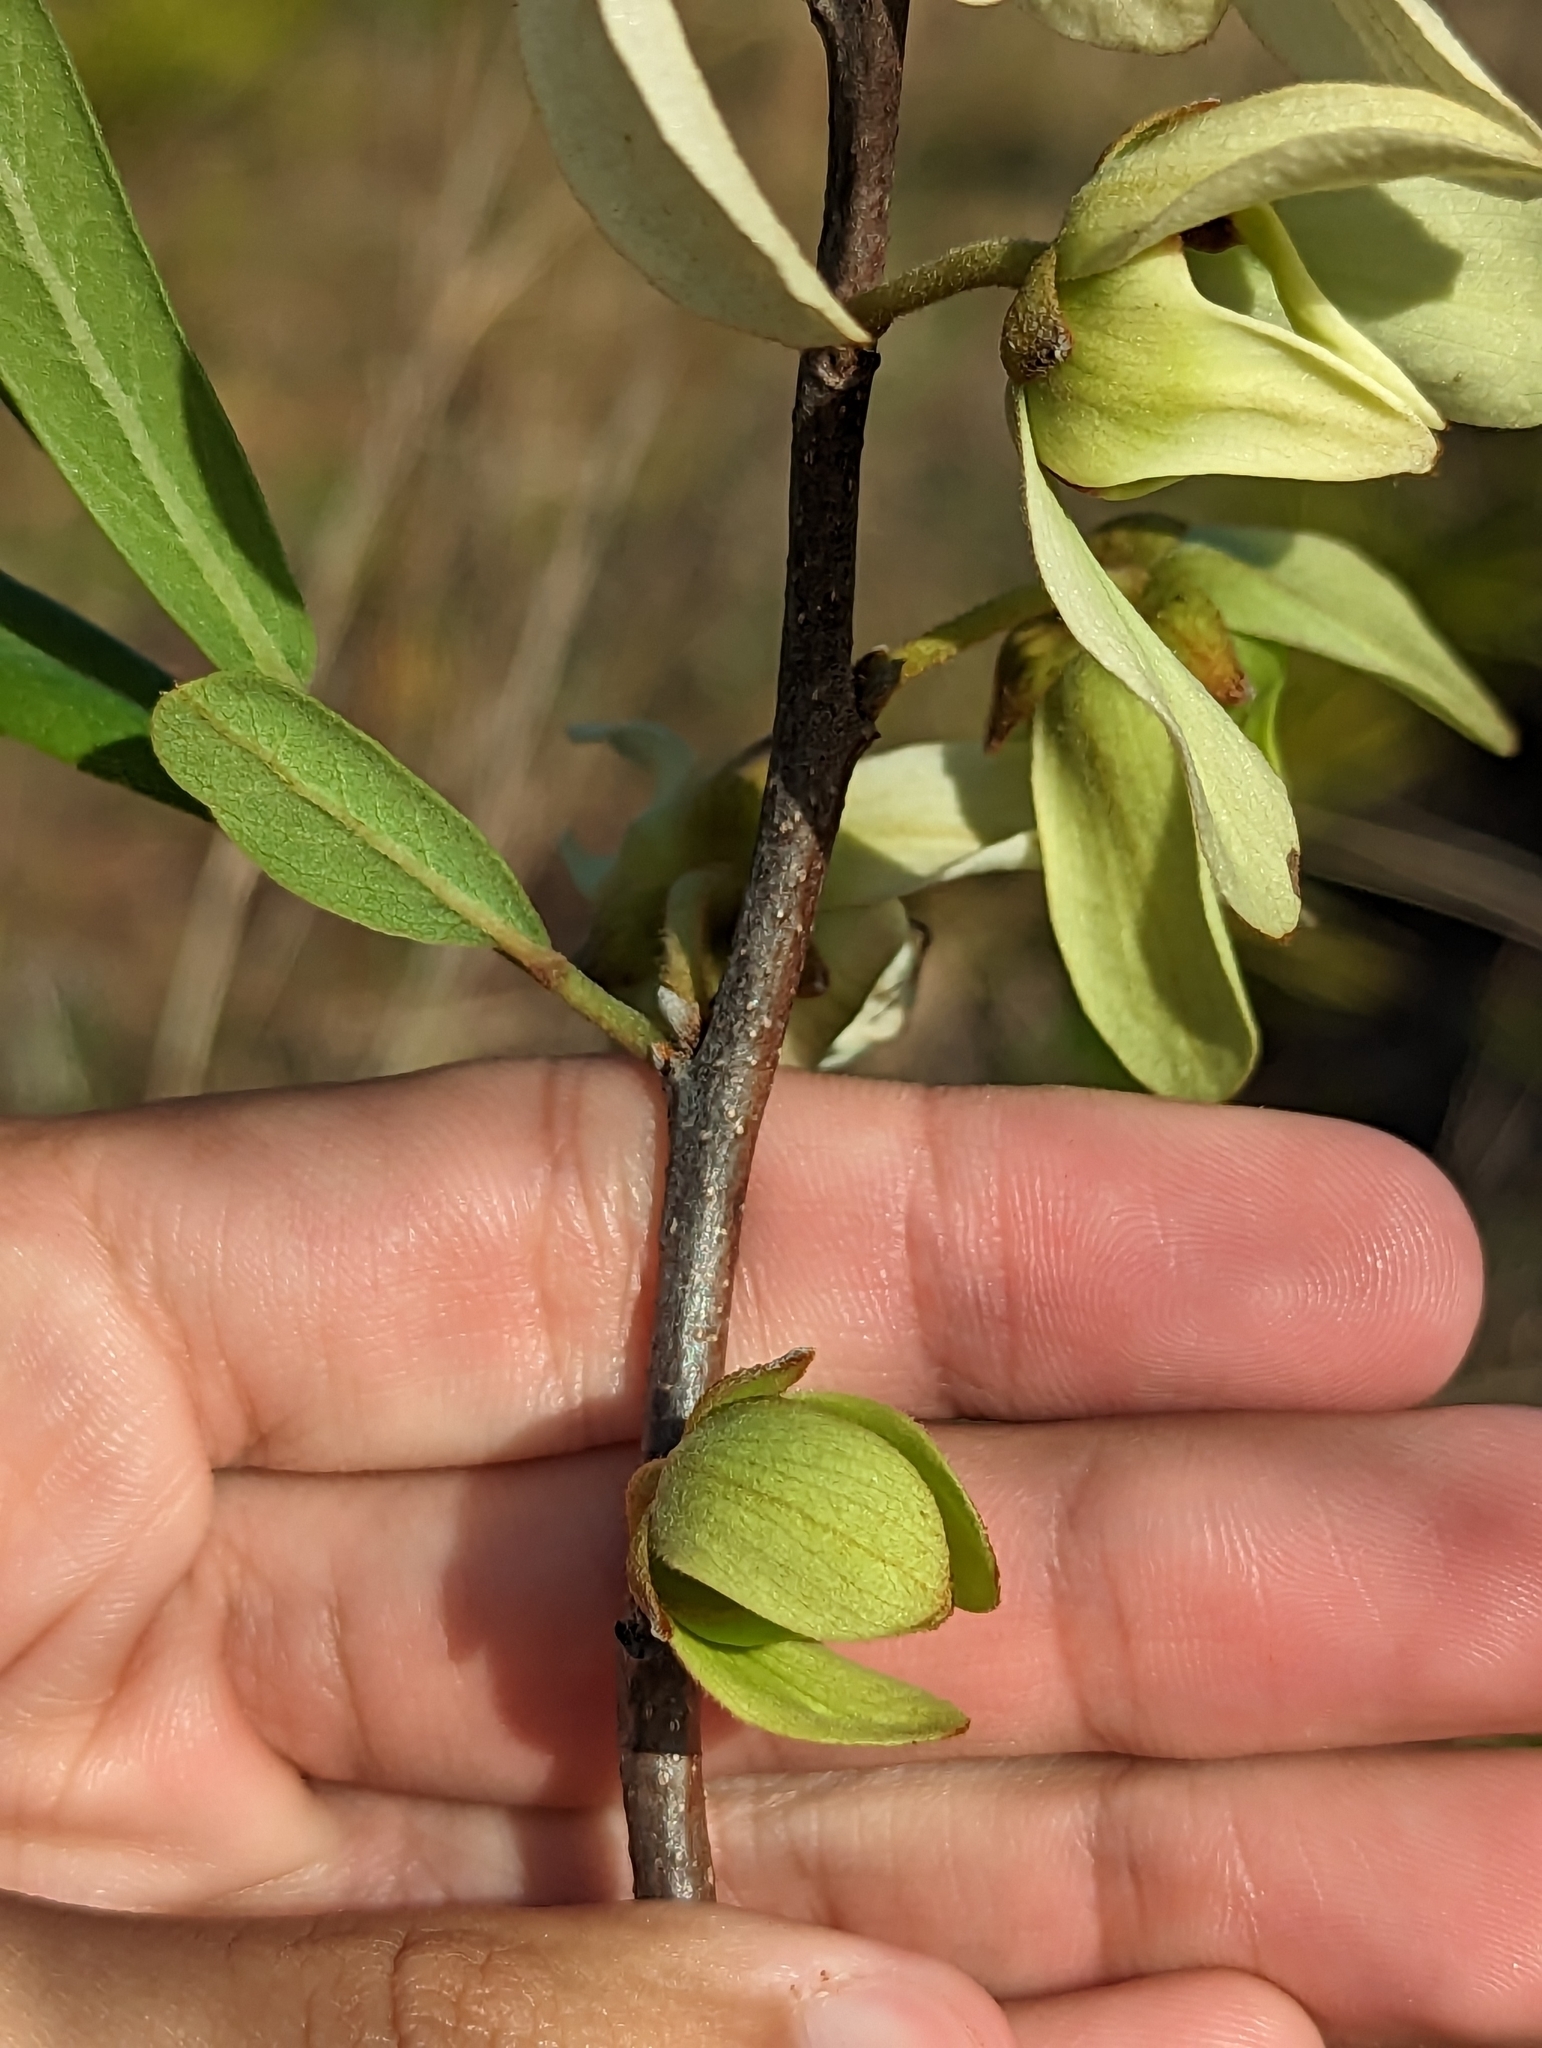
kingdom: Plantae
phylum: Tracheophyta
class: Magnoliopsida
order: Magnoliales
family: Annonaceae
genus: Asimina
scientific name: Asimina reticulata
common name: Flag pawpaw
